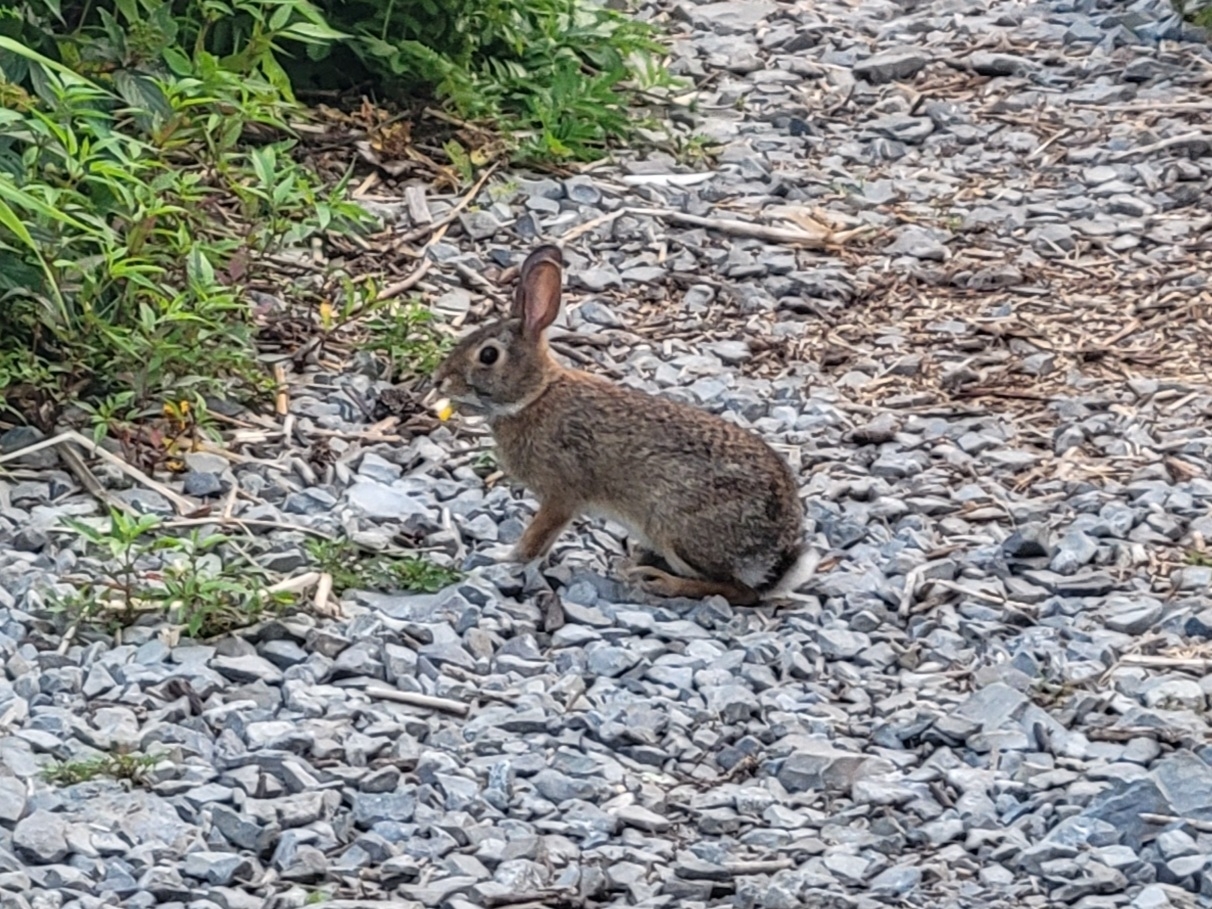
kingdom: Animalia
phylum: Chordata
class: Mammalia
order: Lagomorpha
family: Leporidae
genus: Sylvilagus
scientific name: Sylvilagus floridanus
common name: Eastern cottontail
